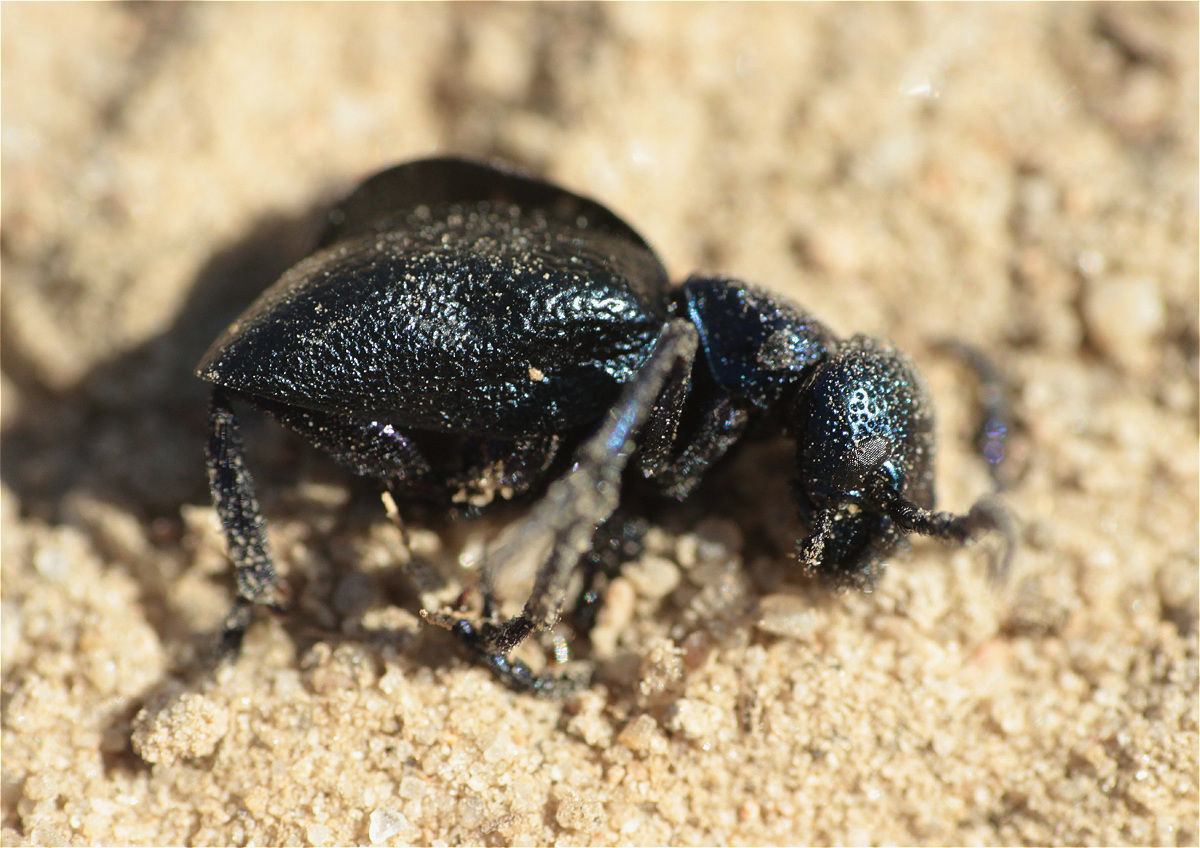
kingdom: Animalia
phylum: Arthropoda
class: Insecta
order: Coleoptera
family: Meloidae
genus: Meloe
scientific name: Meloe proscarabaeus
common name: Black oil-beetle
